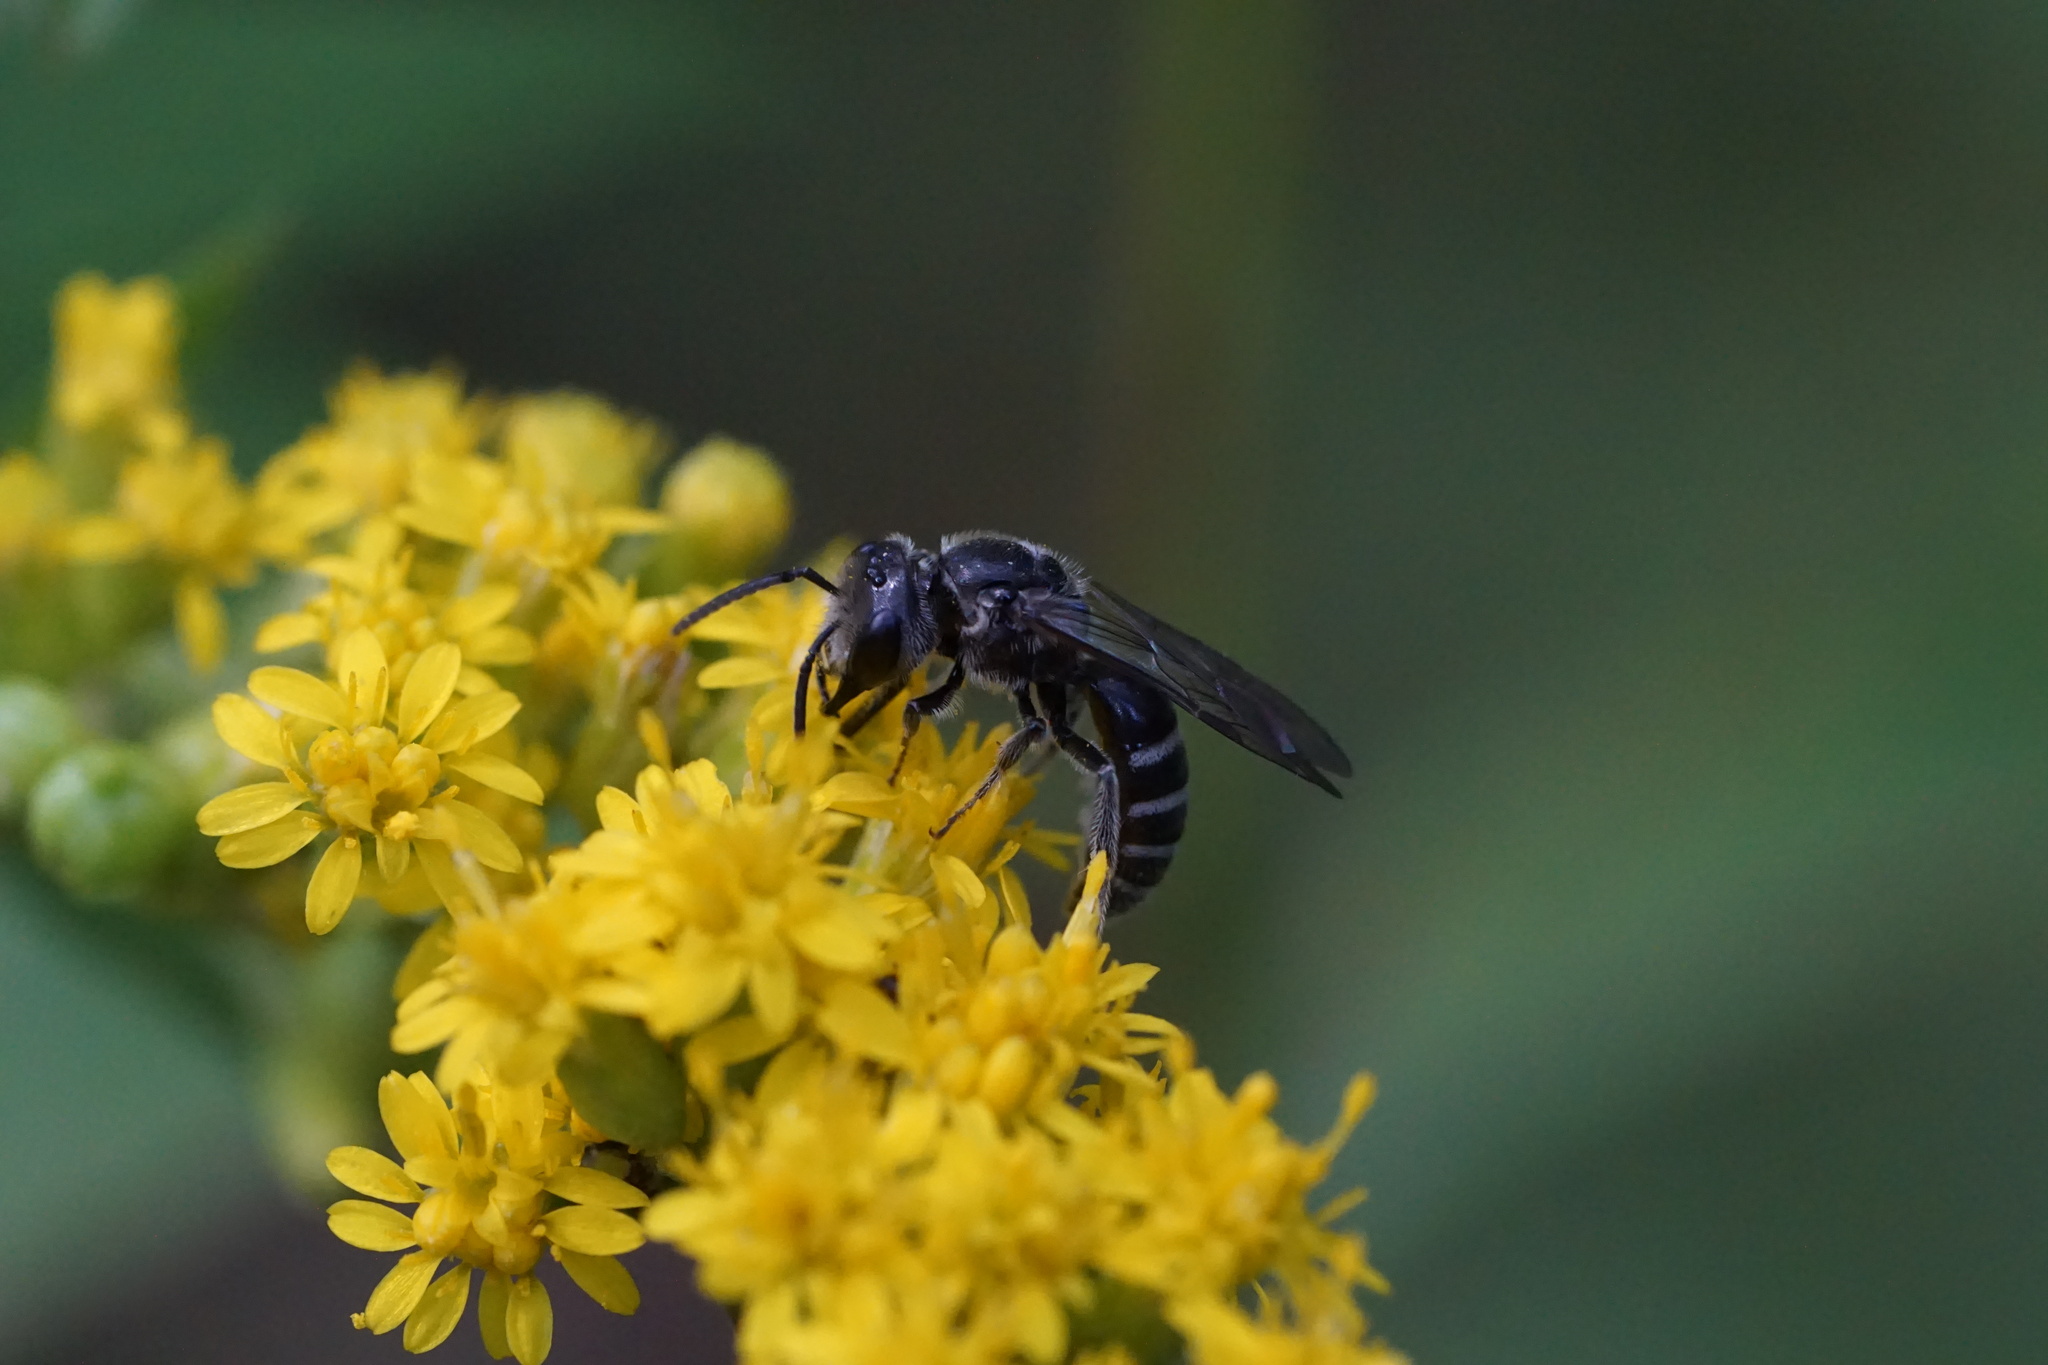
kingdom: Animalia
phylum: Arthropoda
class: Insecta
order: Hymenoptera
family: Halictidae
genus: Lasioglossum
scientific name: Lasioglossum coriaceum
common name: Leathery sweat bee
